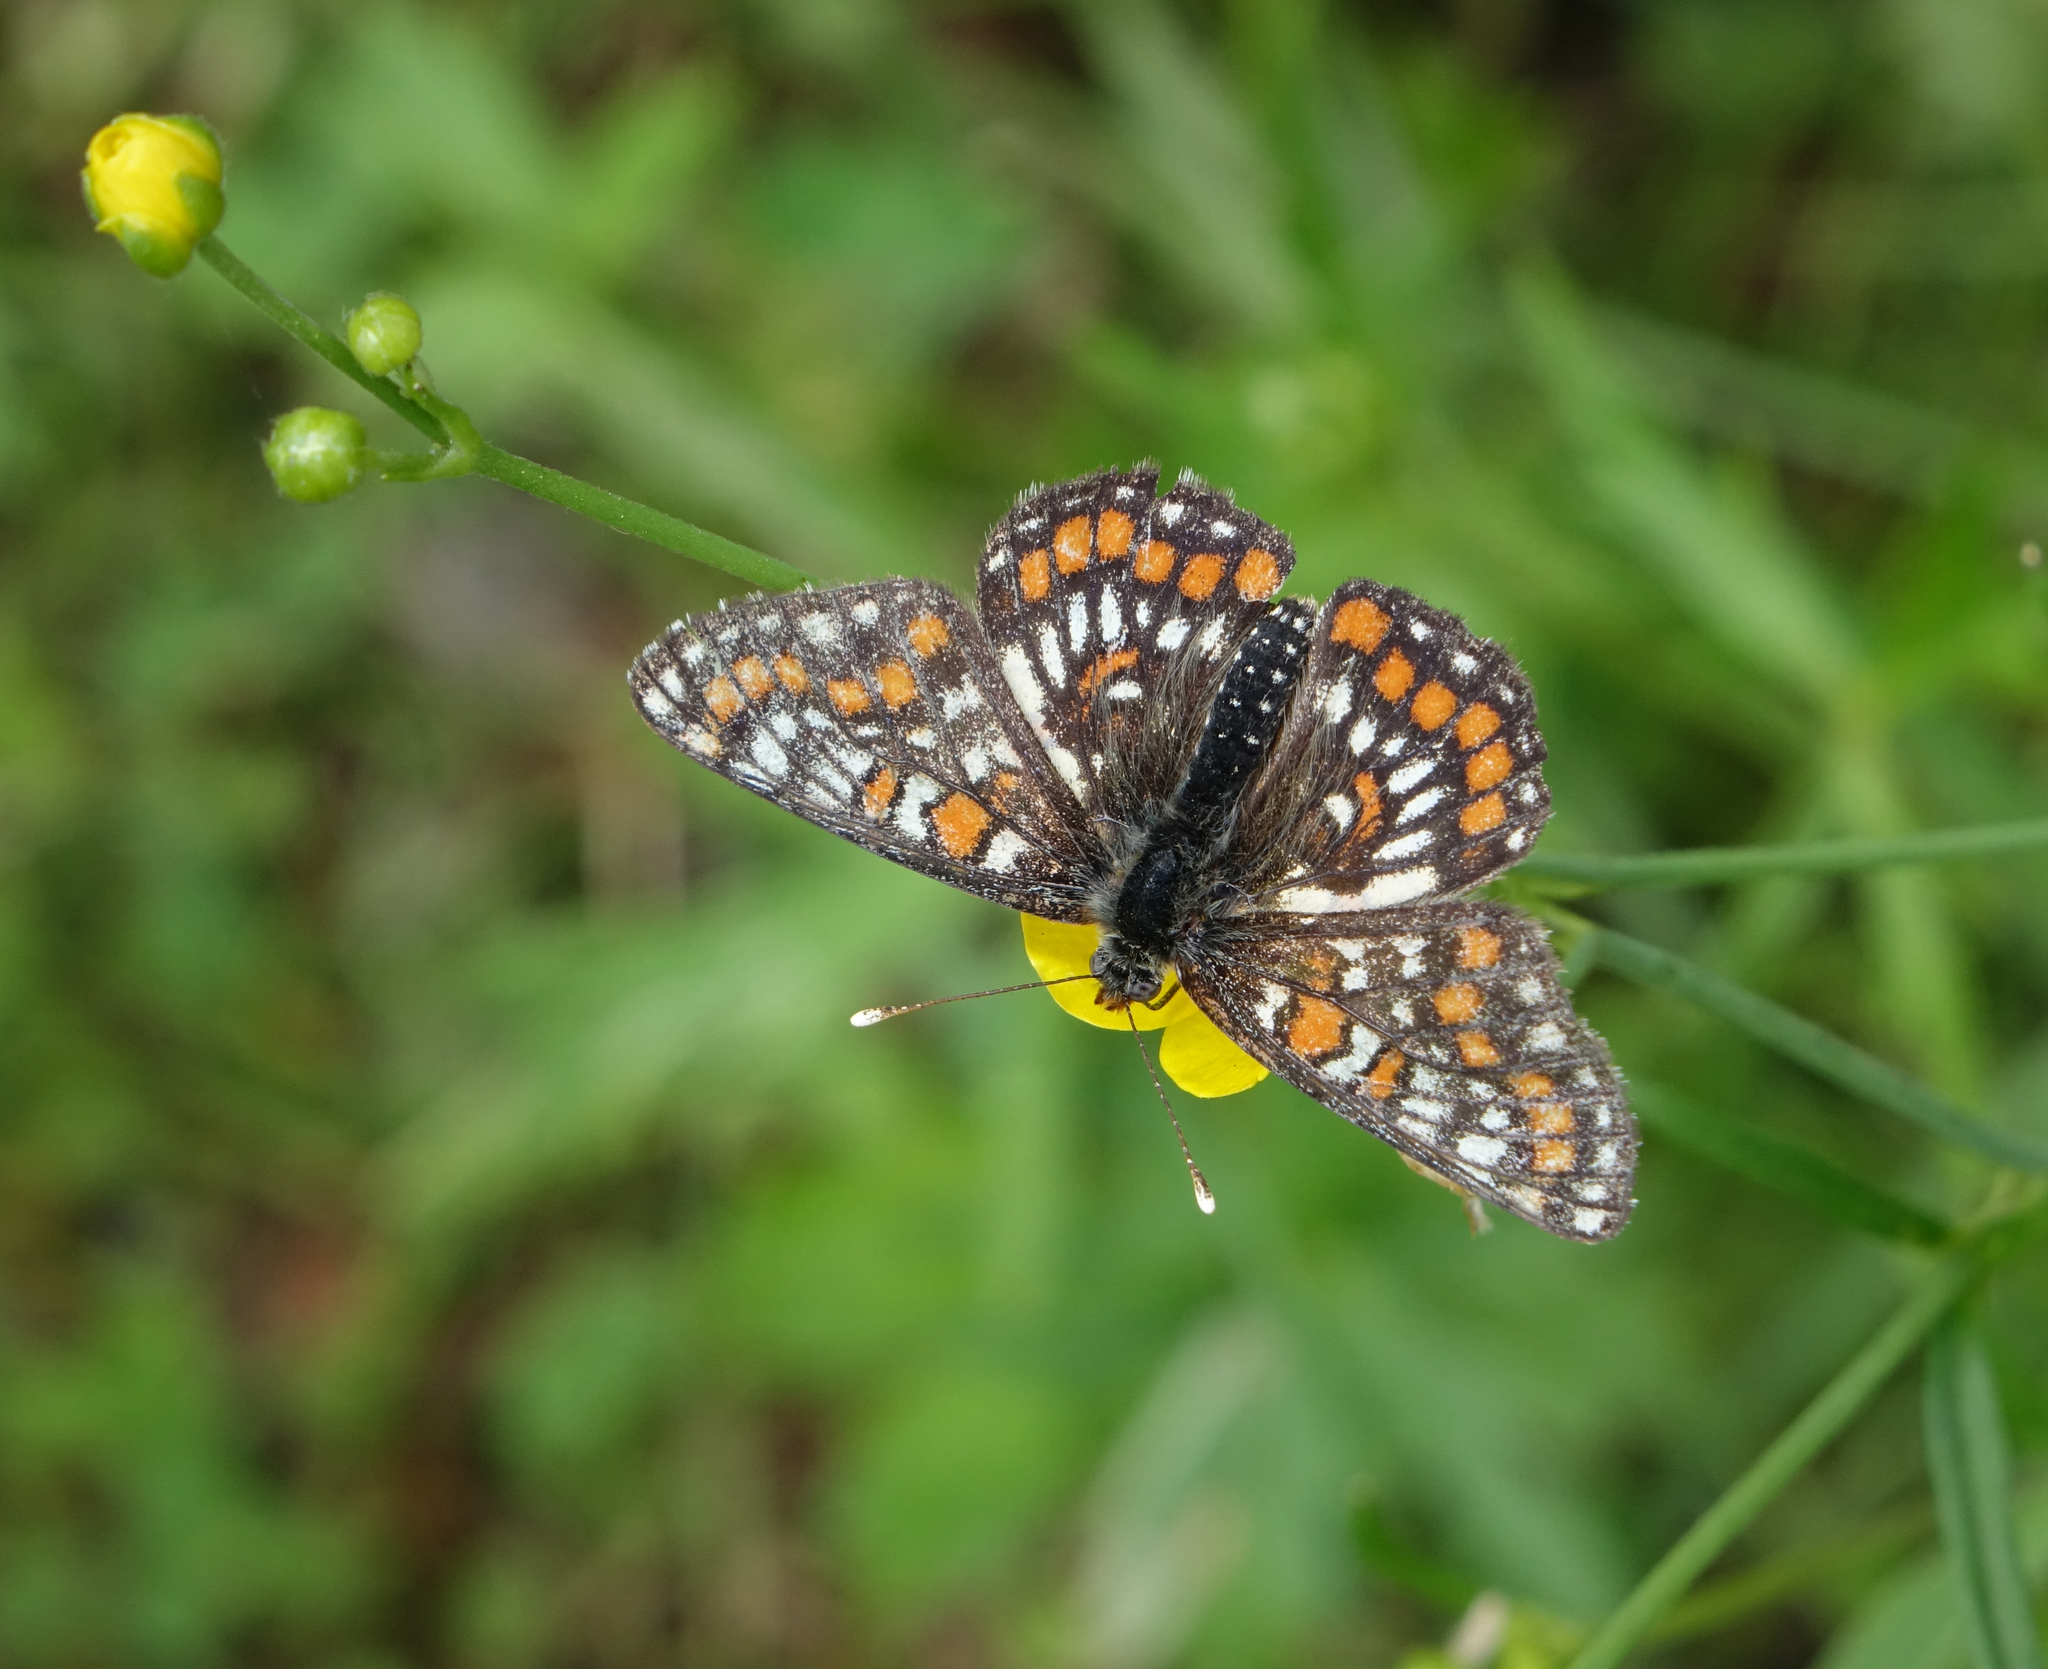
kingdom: Animalia
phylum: Arthropoda
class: Insecta
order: Lepidoptera
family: Nymphalidae
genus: Euphydryas
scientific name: Euphydryas maturna
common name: Scarce fritillary
